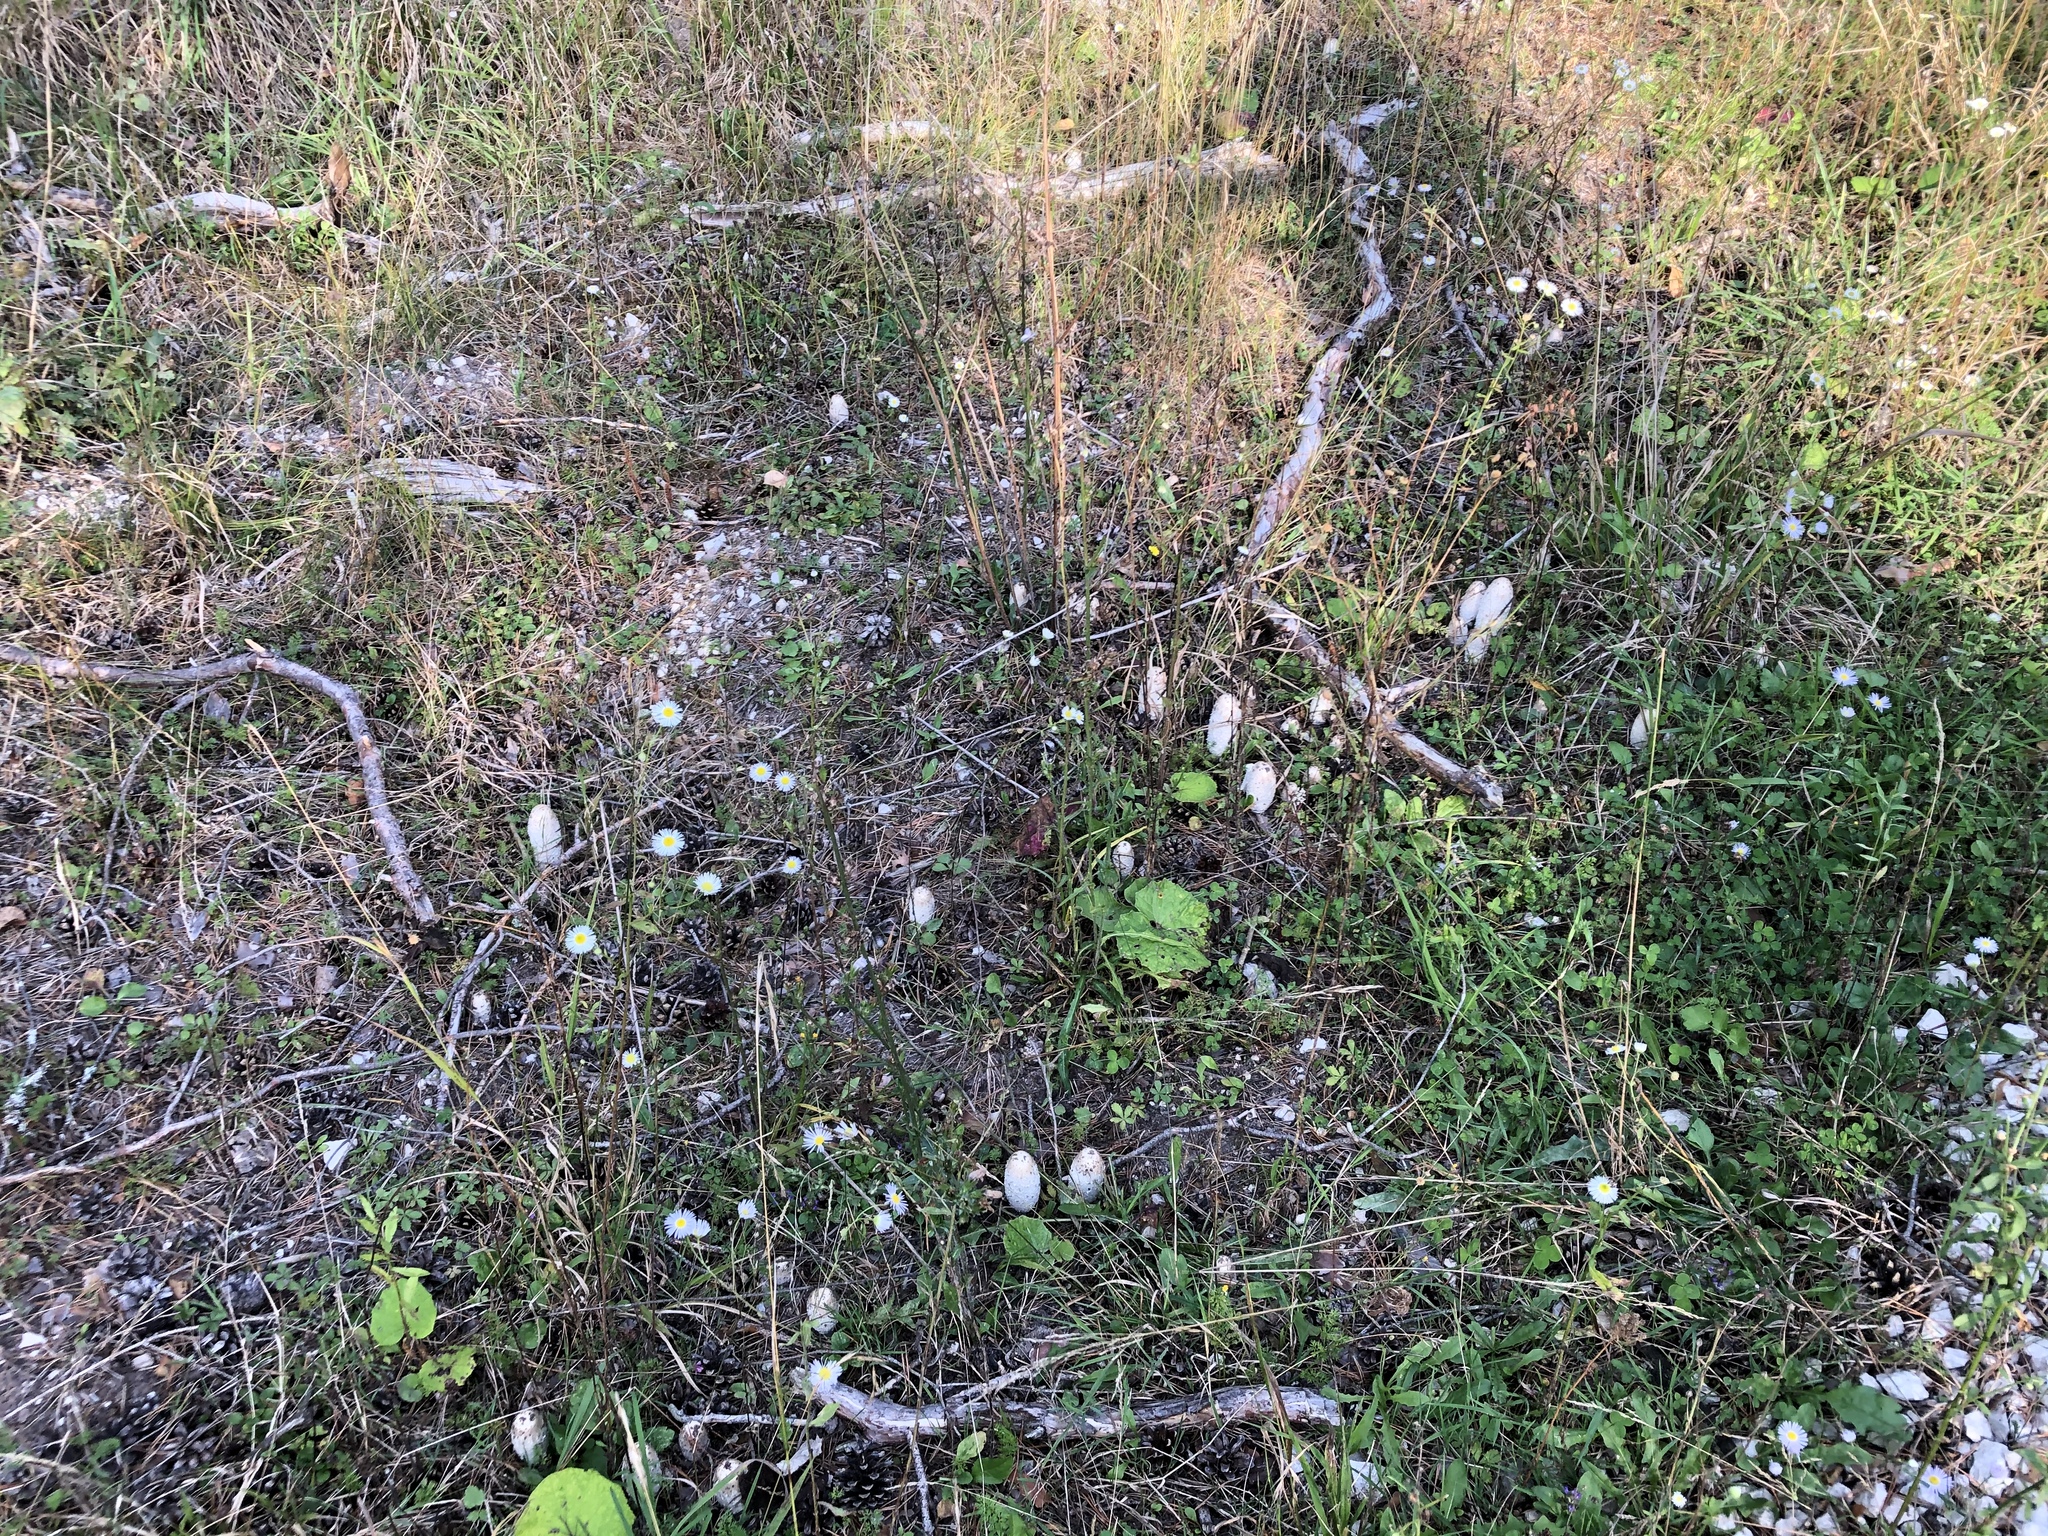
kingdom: Fungi
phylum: Basidiomycota
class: Agaricomycetes
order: Agaricales
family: Agaricaceae
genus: Coprinus
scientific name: Coprinus comatus
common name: Lawyer's wig
